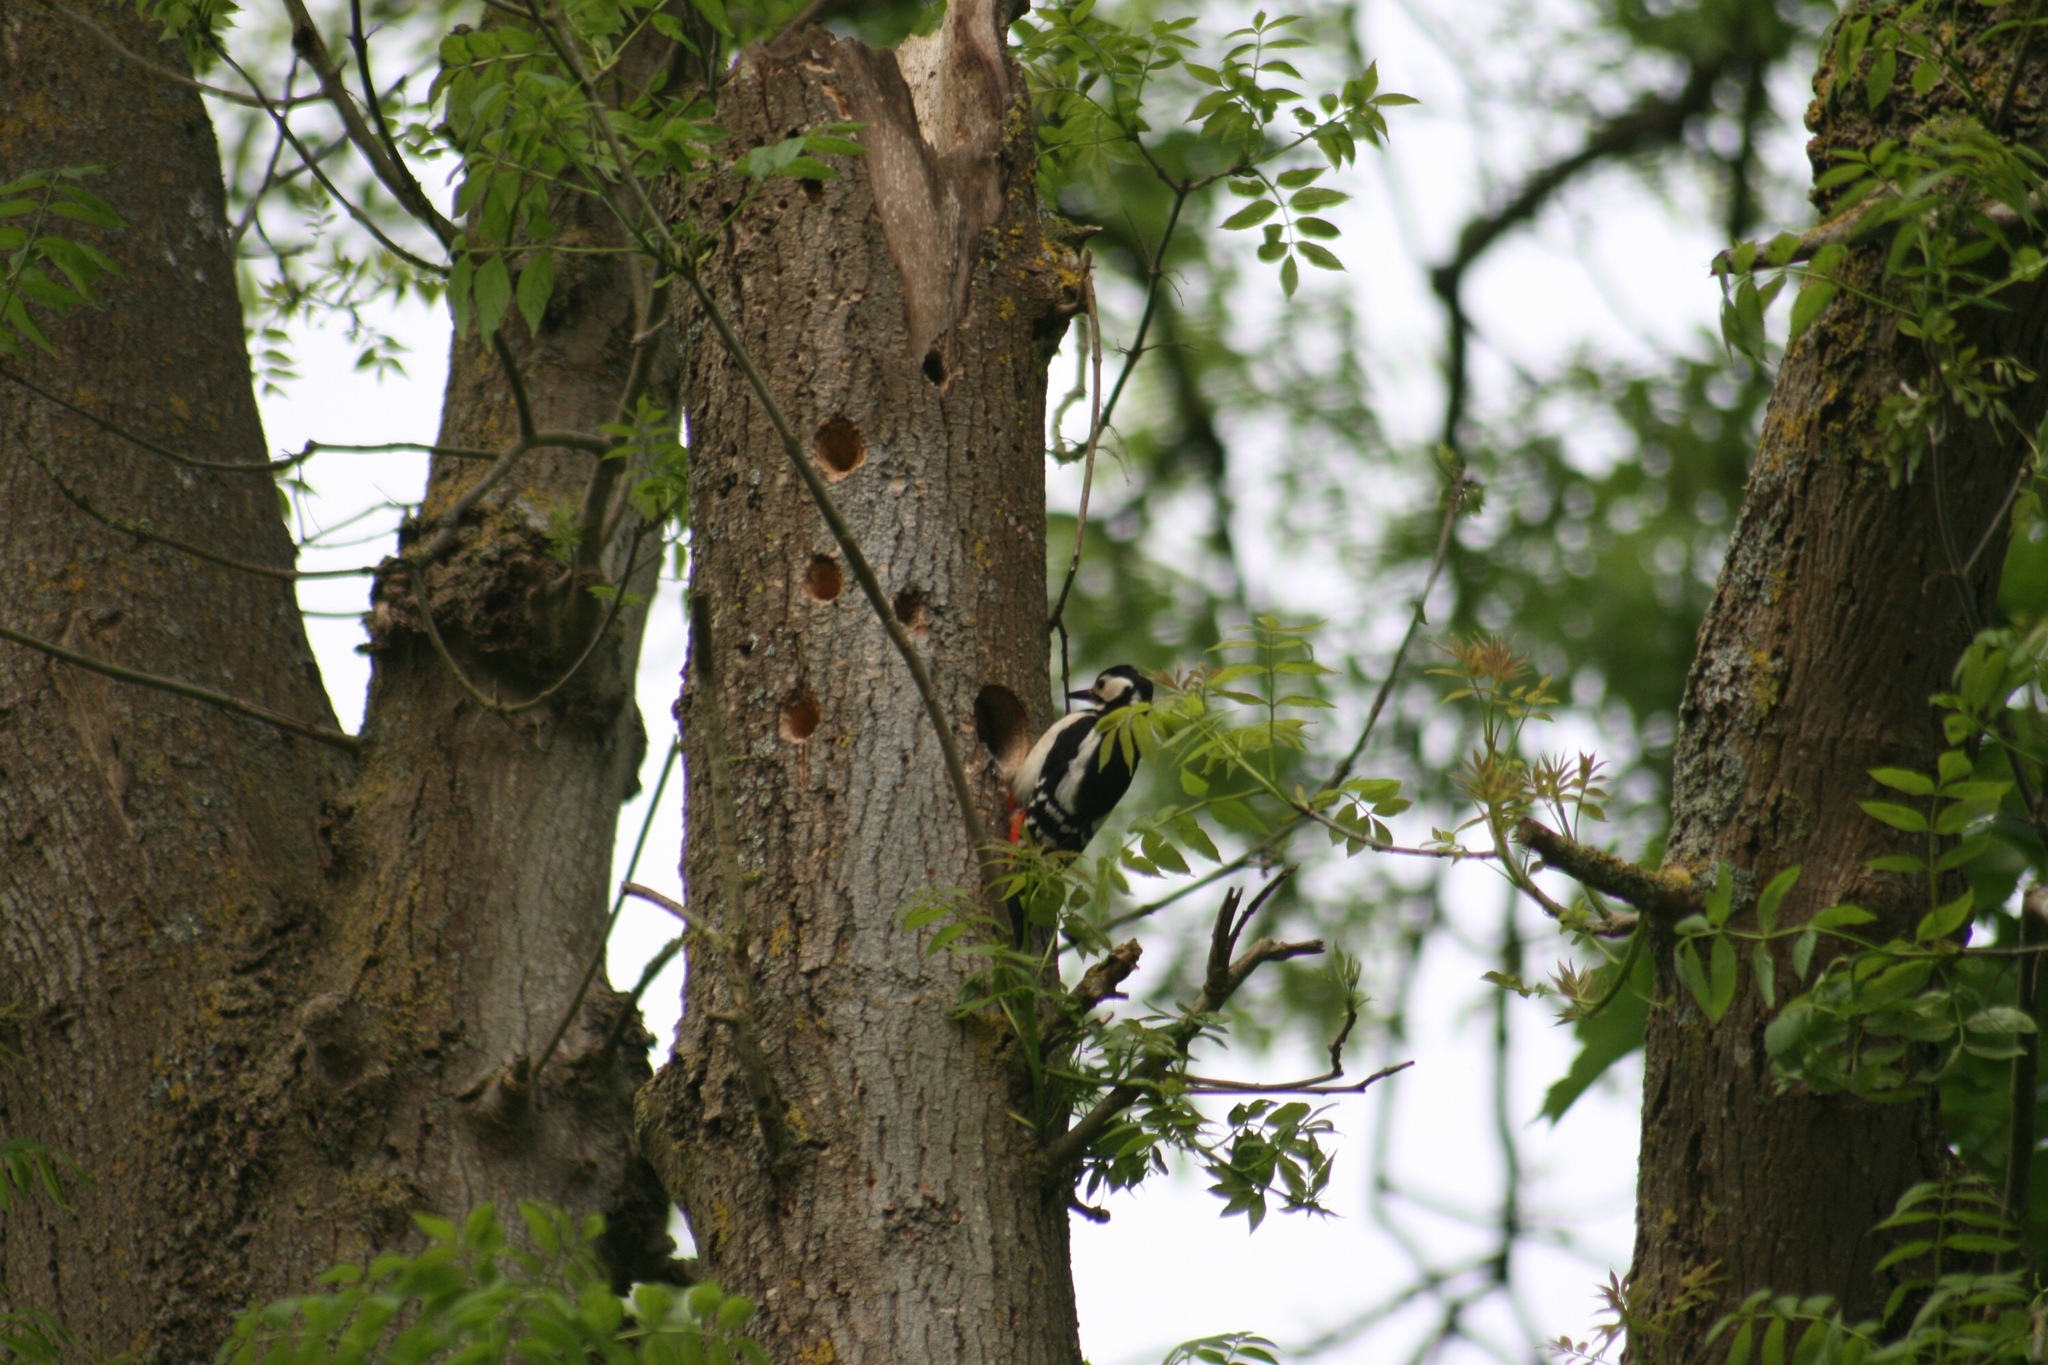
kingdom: Animalia
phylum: Chordata
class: Aves
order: Piciformes
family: Picidae
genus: Dendrocopos
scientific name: Dendrocopos major
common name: Great spotted woodpecker
